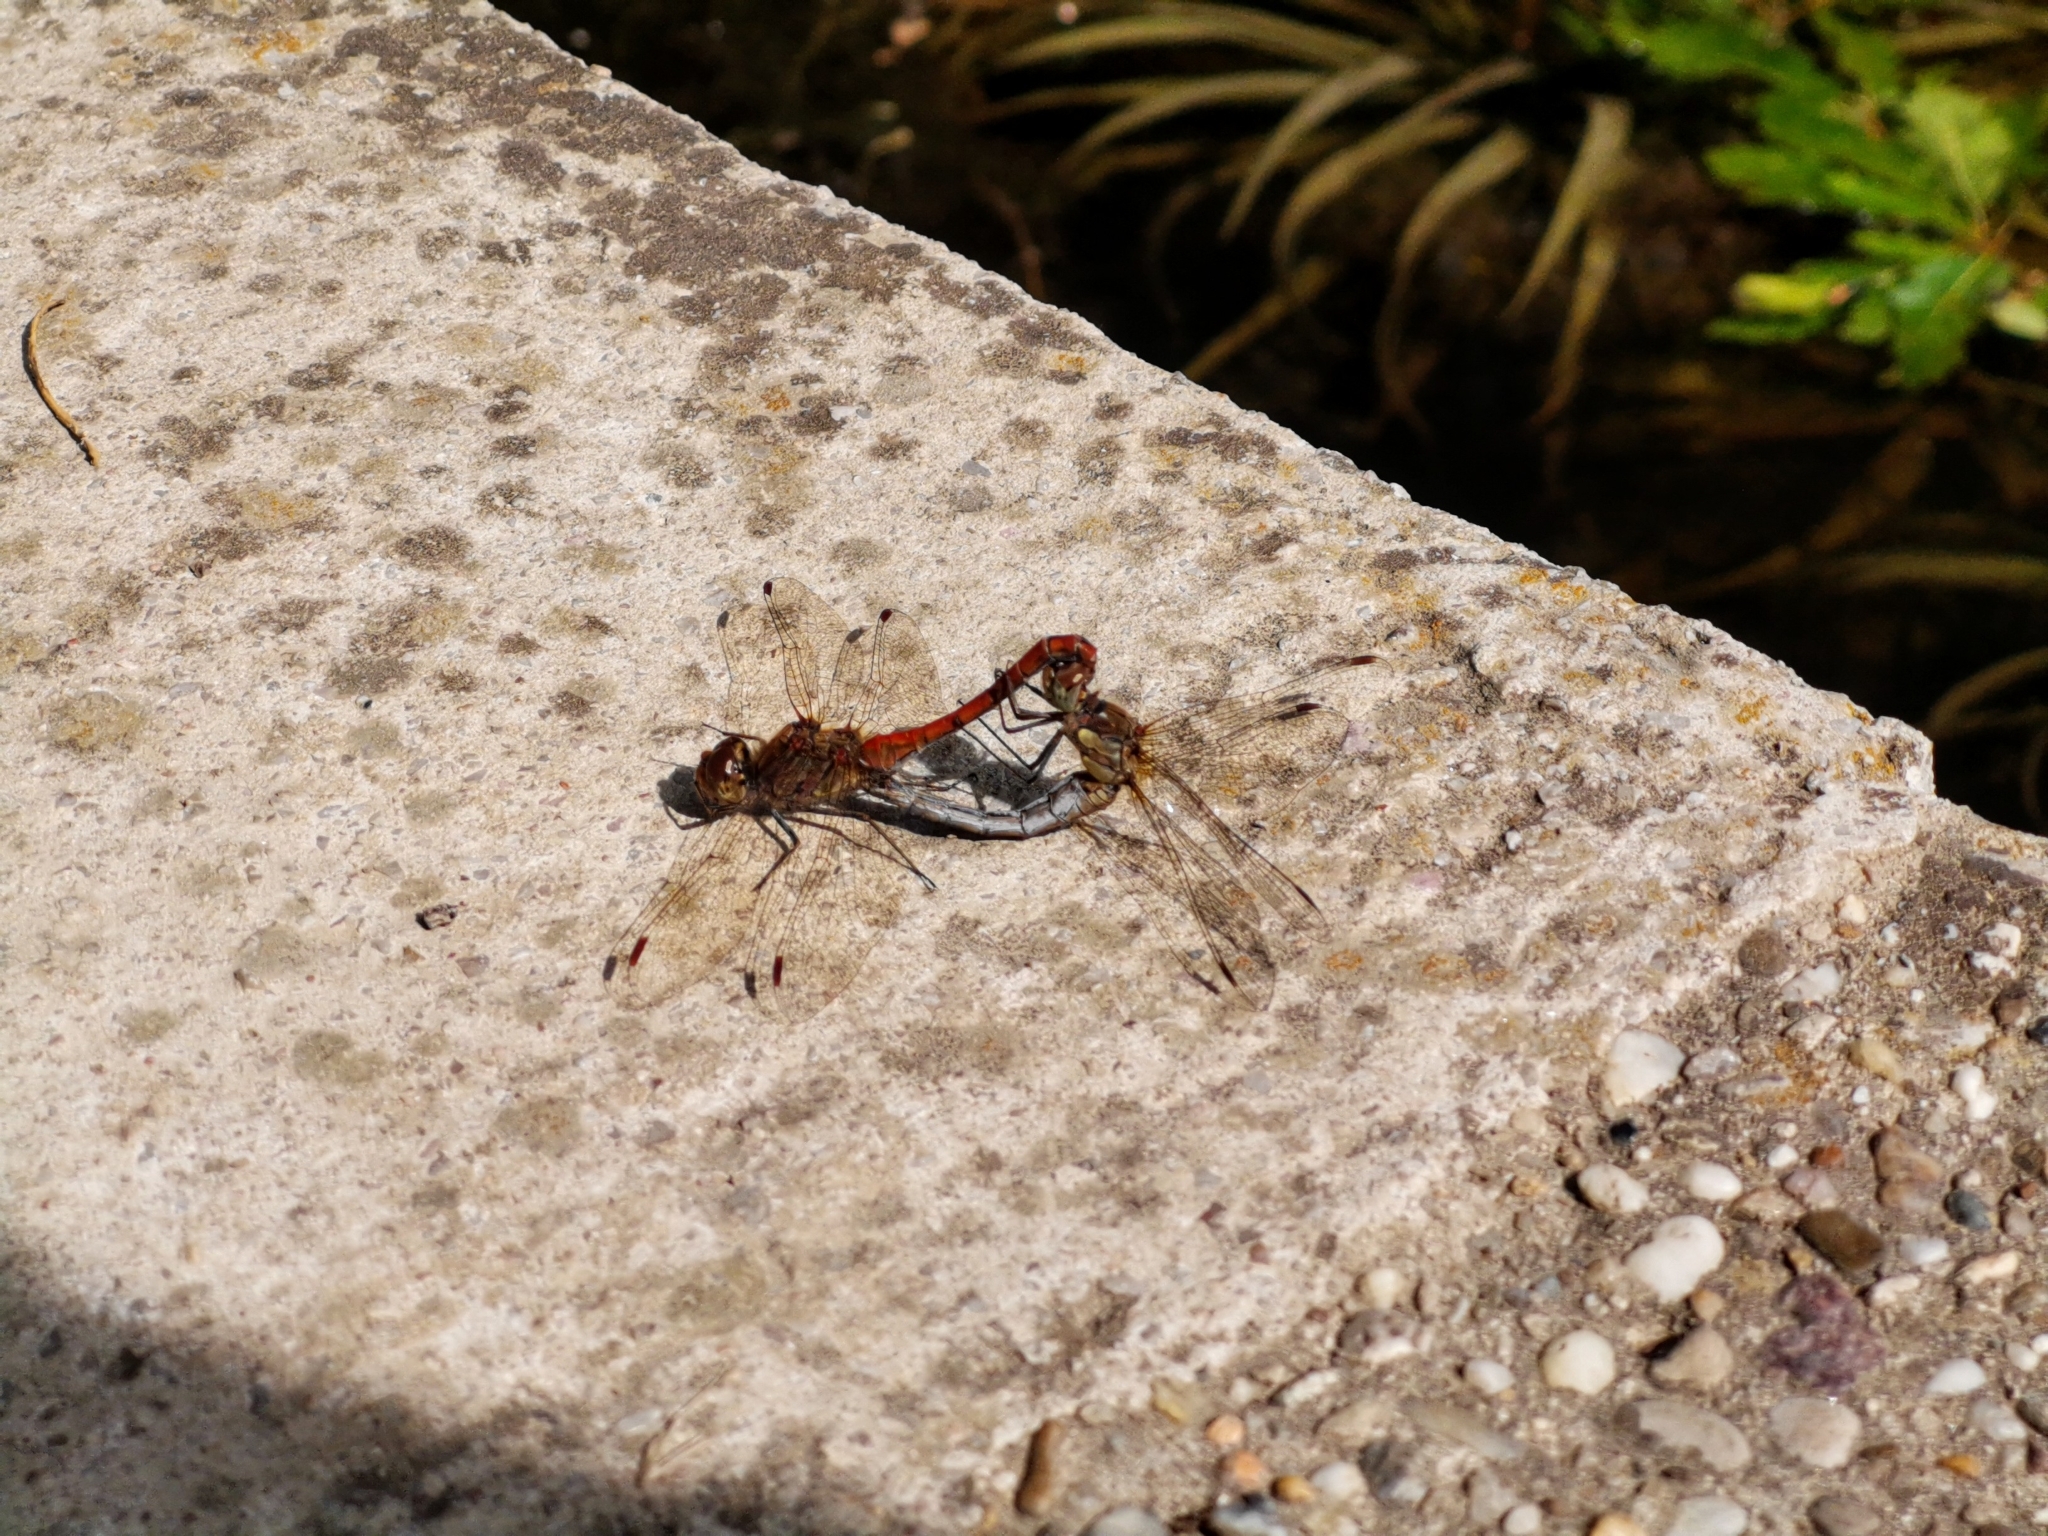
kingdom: Animalia
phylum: Arthropoda
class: Insecta
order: Odonata
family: Libellulidae
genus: Sympetrum
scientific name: Sympetrum striolatum
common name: Common darter
